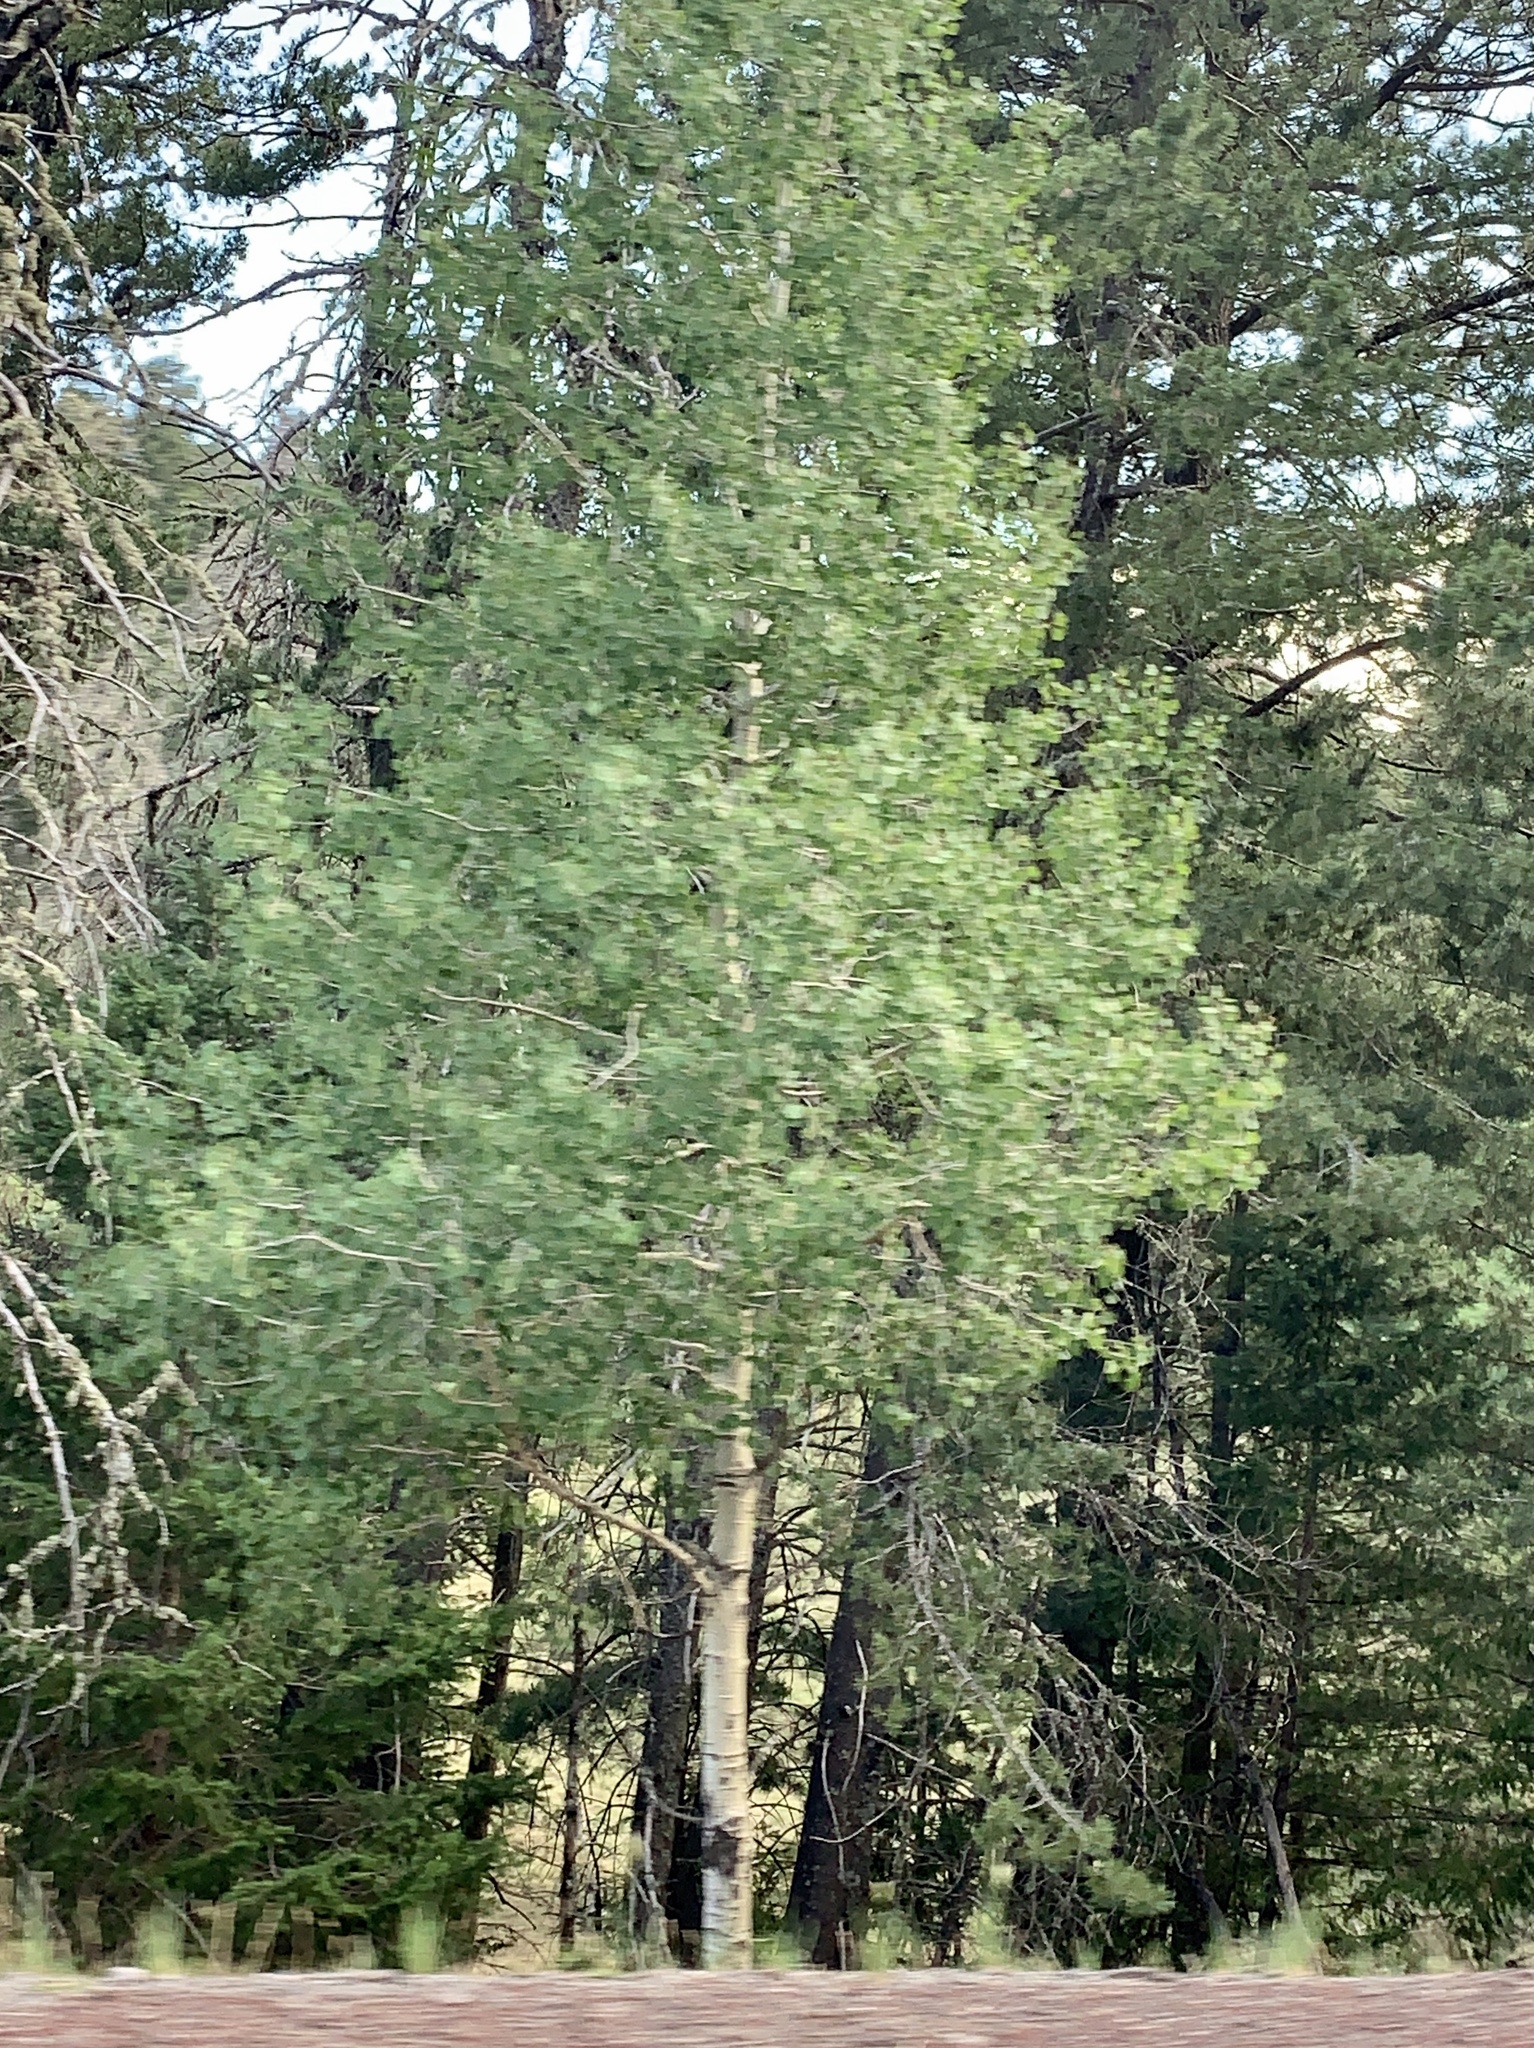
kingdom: Plantae
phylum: Tracheophyta
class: Magnoliopsida
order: Malpighiales
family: Salicaceae
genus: Populus
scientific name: Populus tremuloides
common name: Quaking aspen
